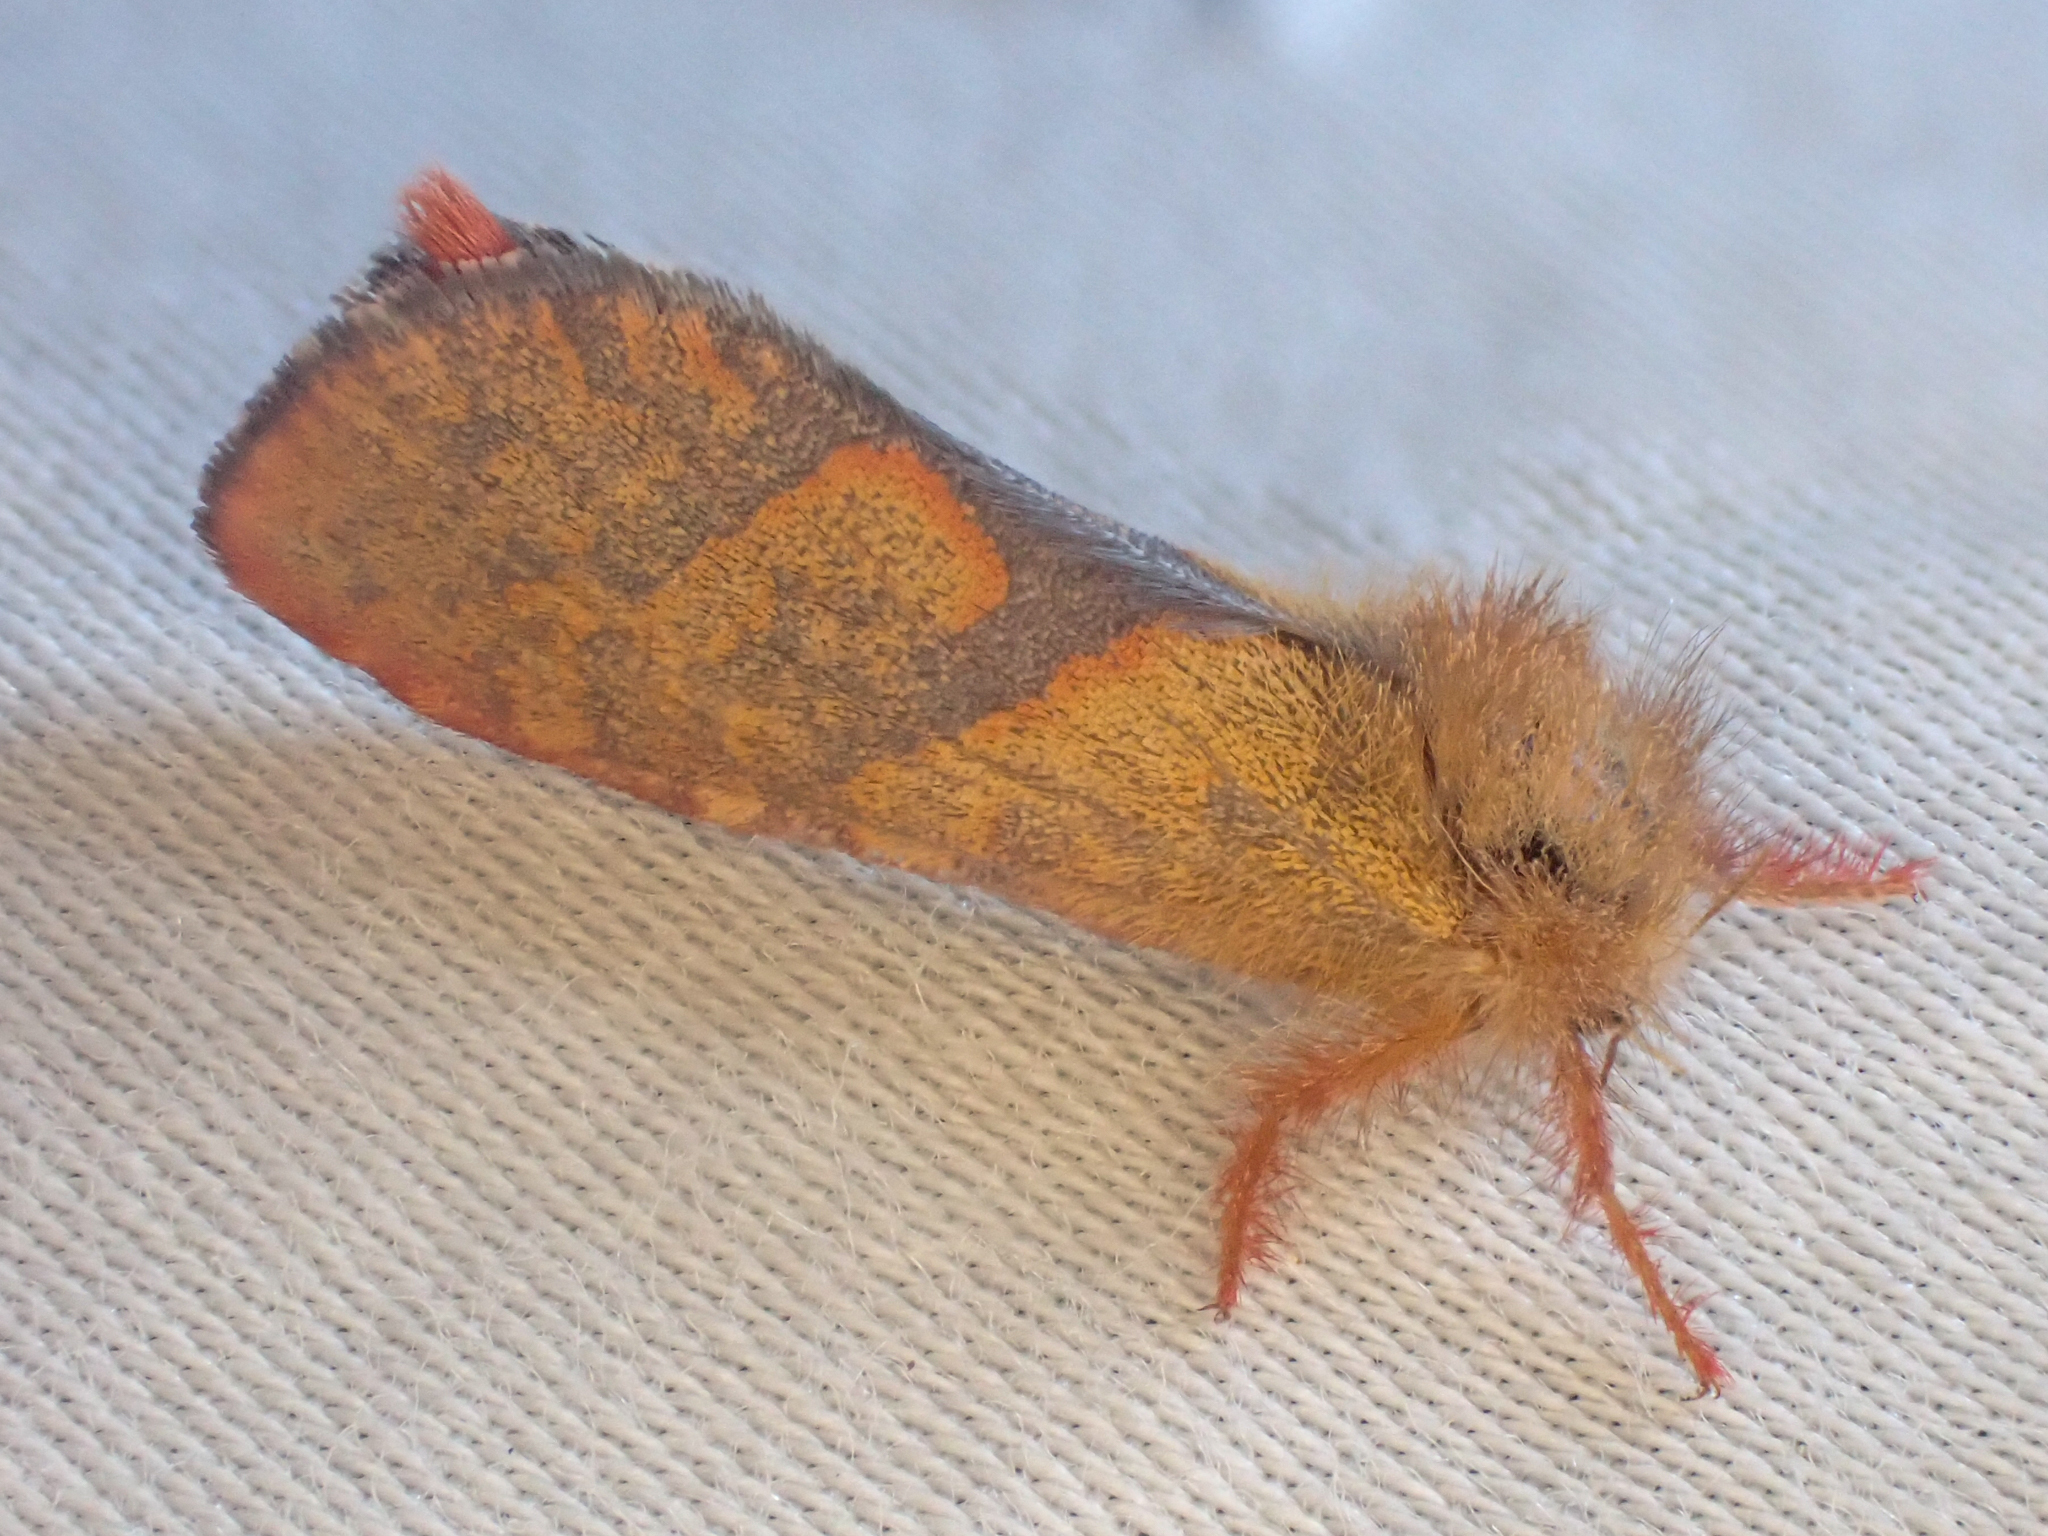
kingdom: Animalia
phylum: Arthropoda
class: Insecta
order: Lepidoptera
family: Hepialidae
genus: Phymatopus
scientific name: Phymatopus hectoides
